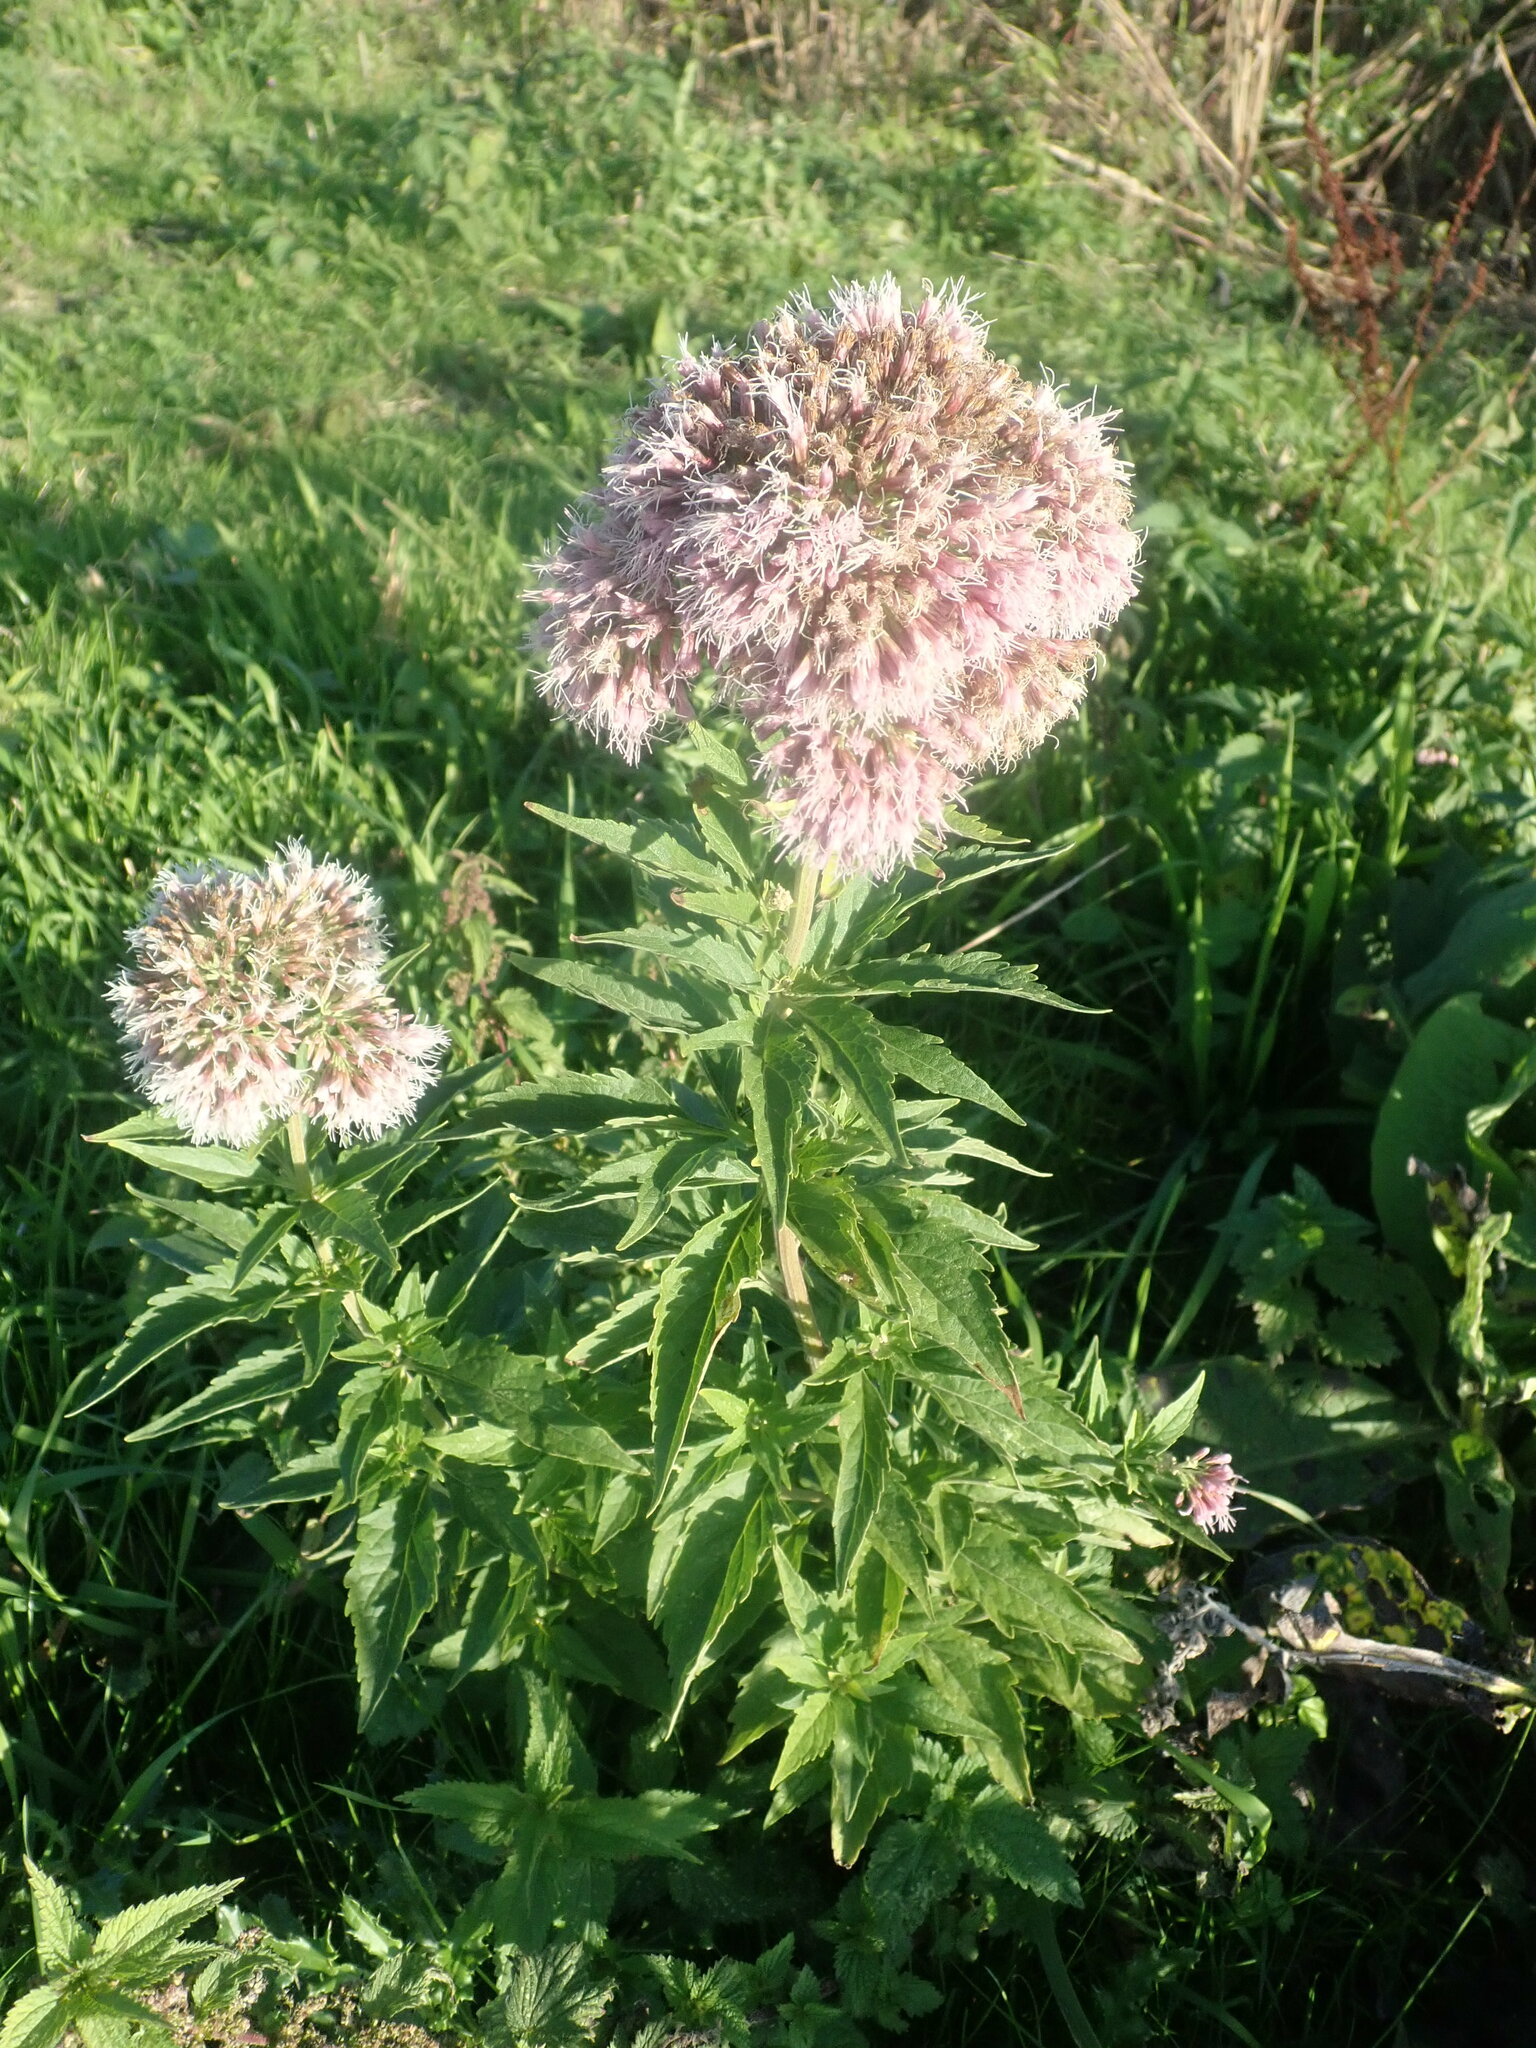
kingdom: Plantae
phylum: Tracheophyta
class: Magnoliopsida
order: Asterales
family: Asteraceae
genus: Eupatorium
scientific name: Eupatorium cannabinum
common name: Hemp-agrimony
